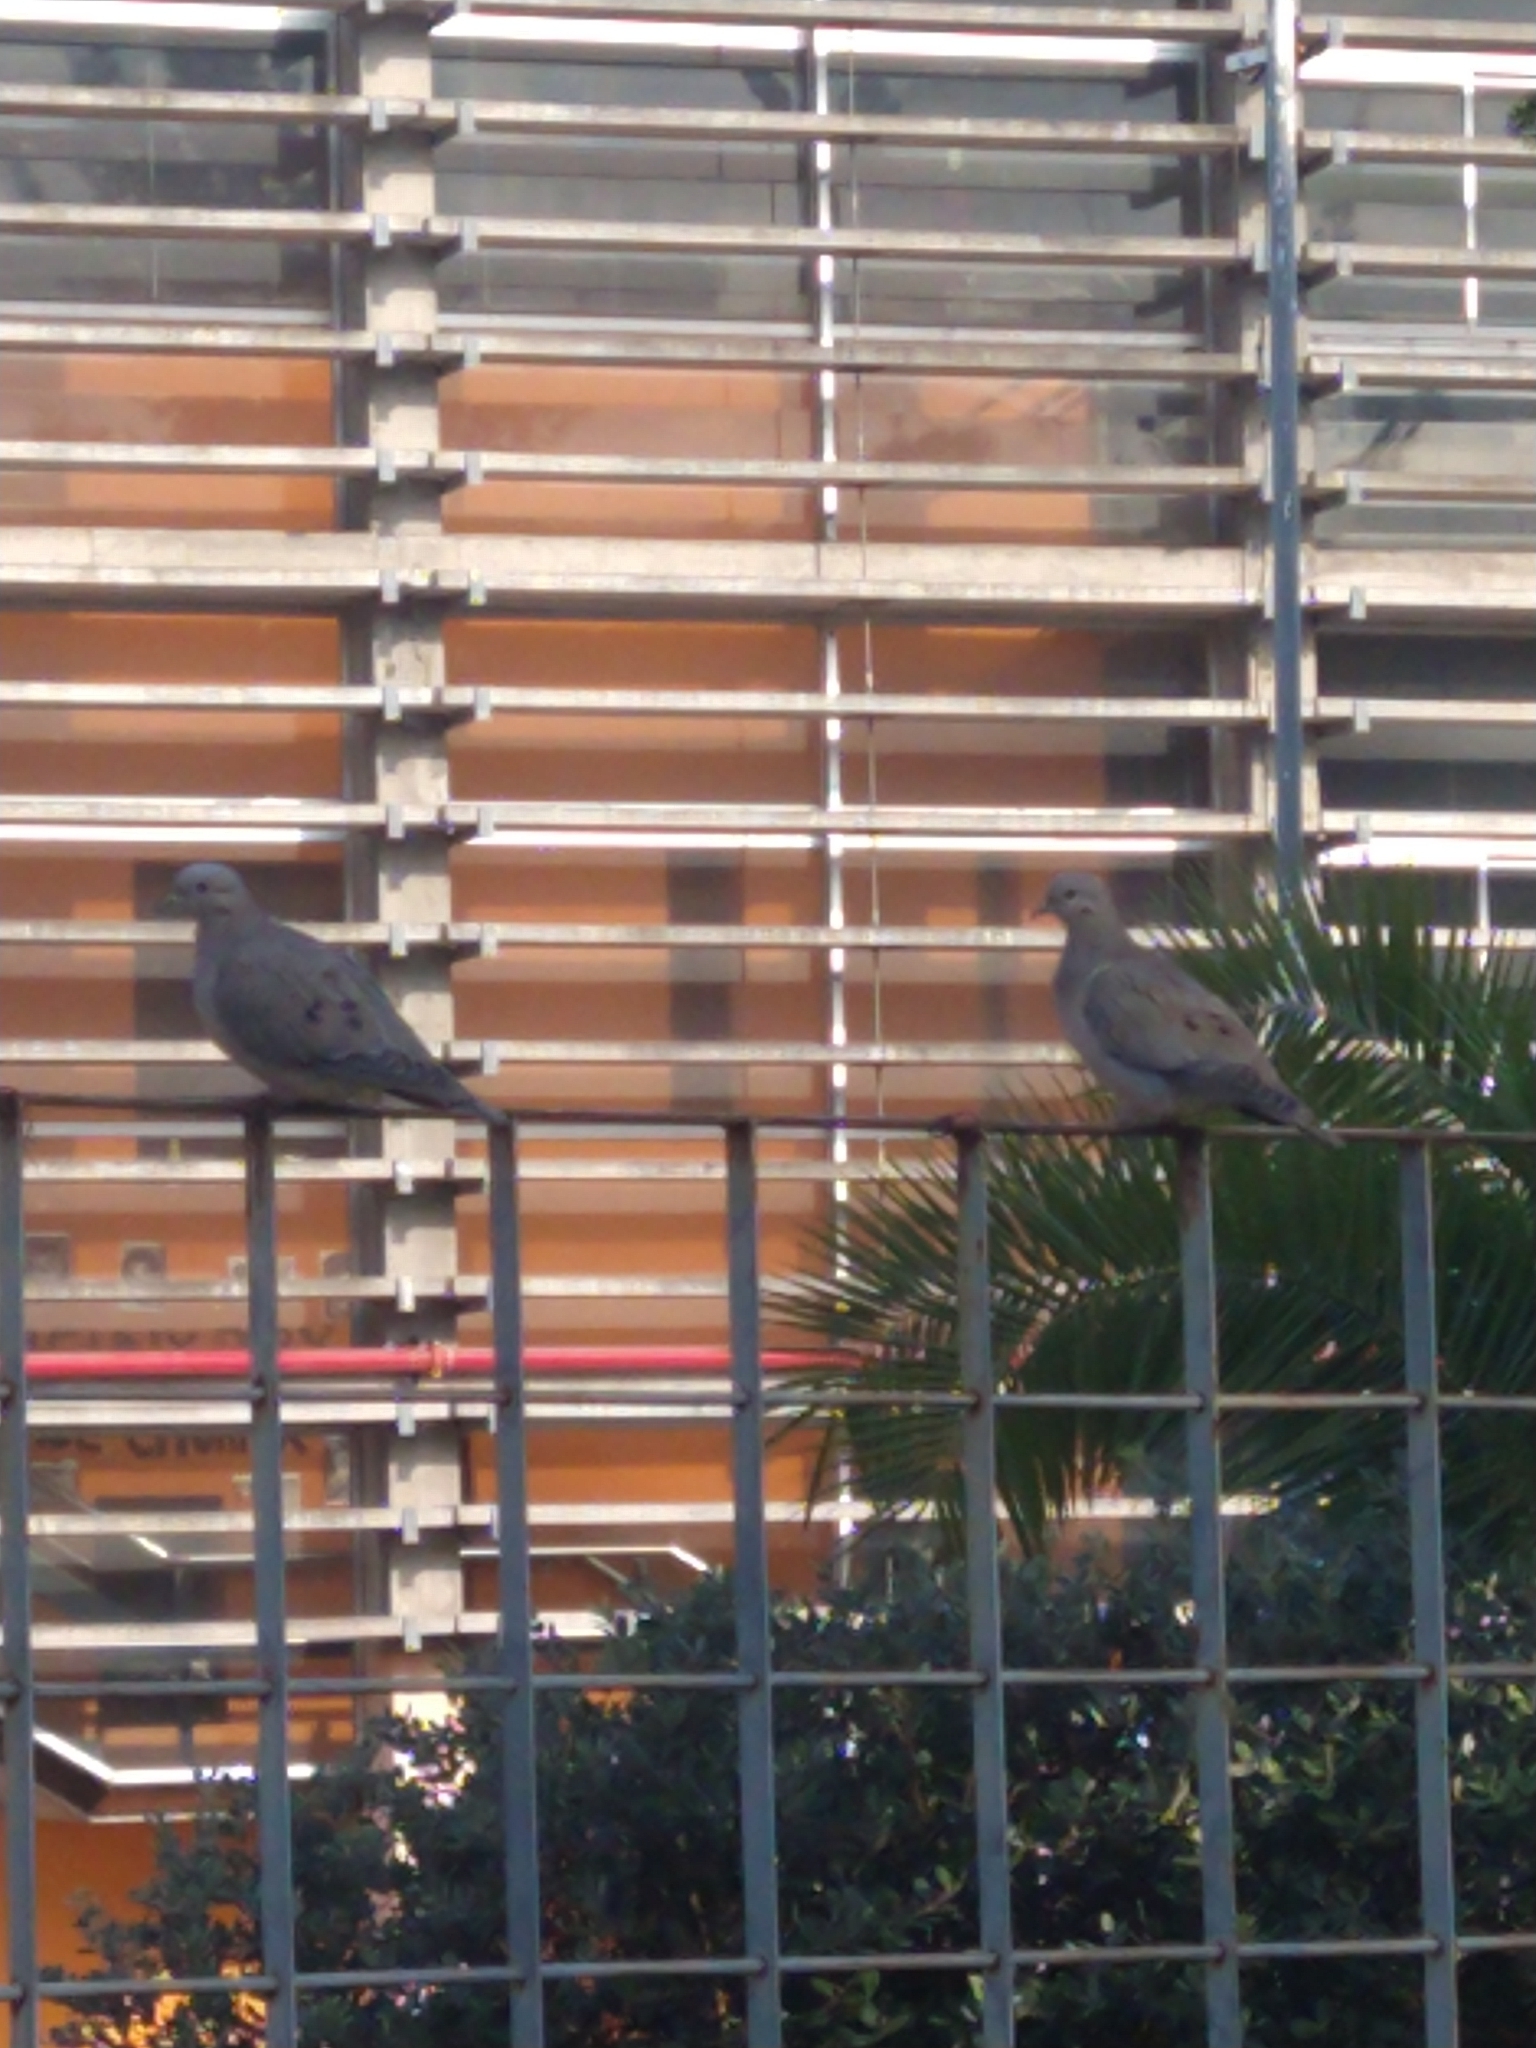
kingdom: Animalia
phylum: Chordata
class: Aves
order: Columbiformes
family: Columbidae
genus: Zenaida
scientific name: Zenaida auriculata
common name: Eared dove
